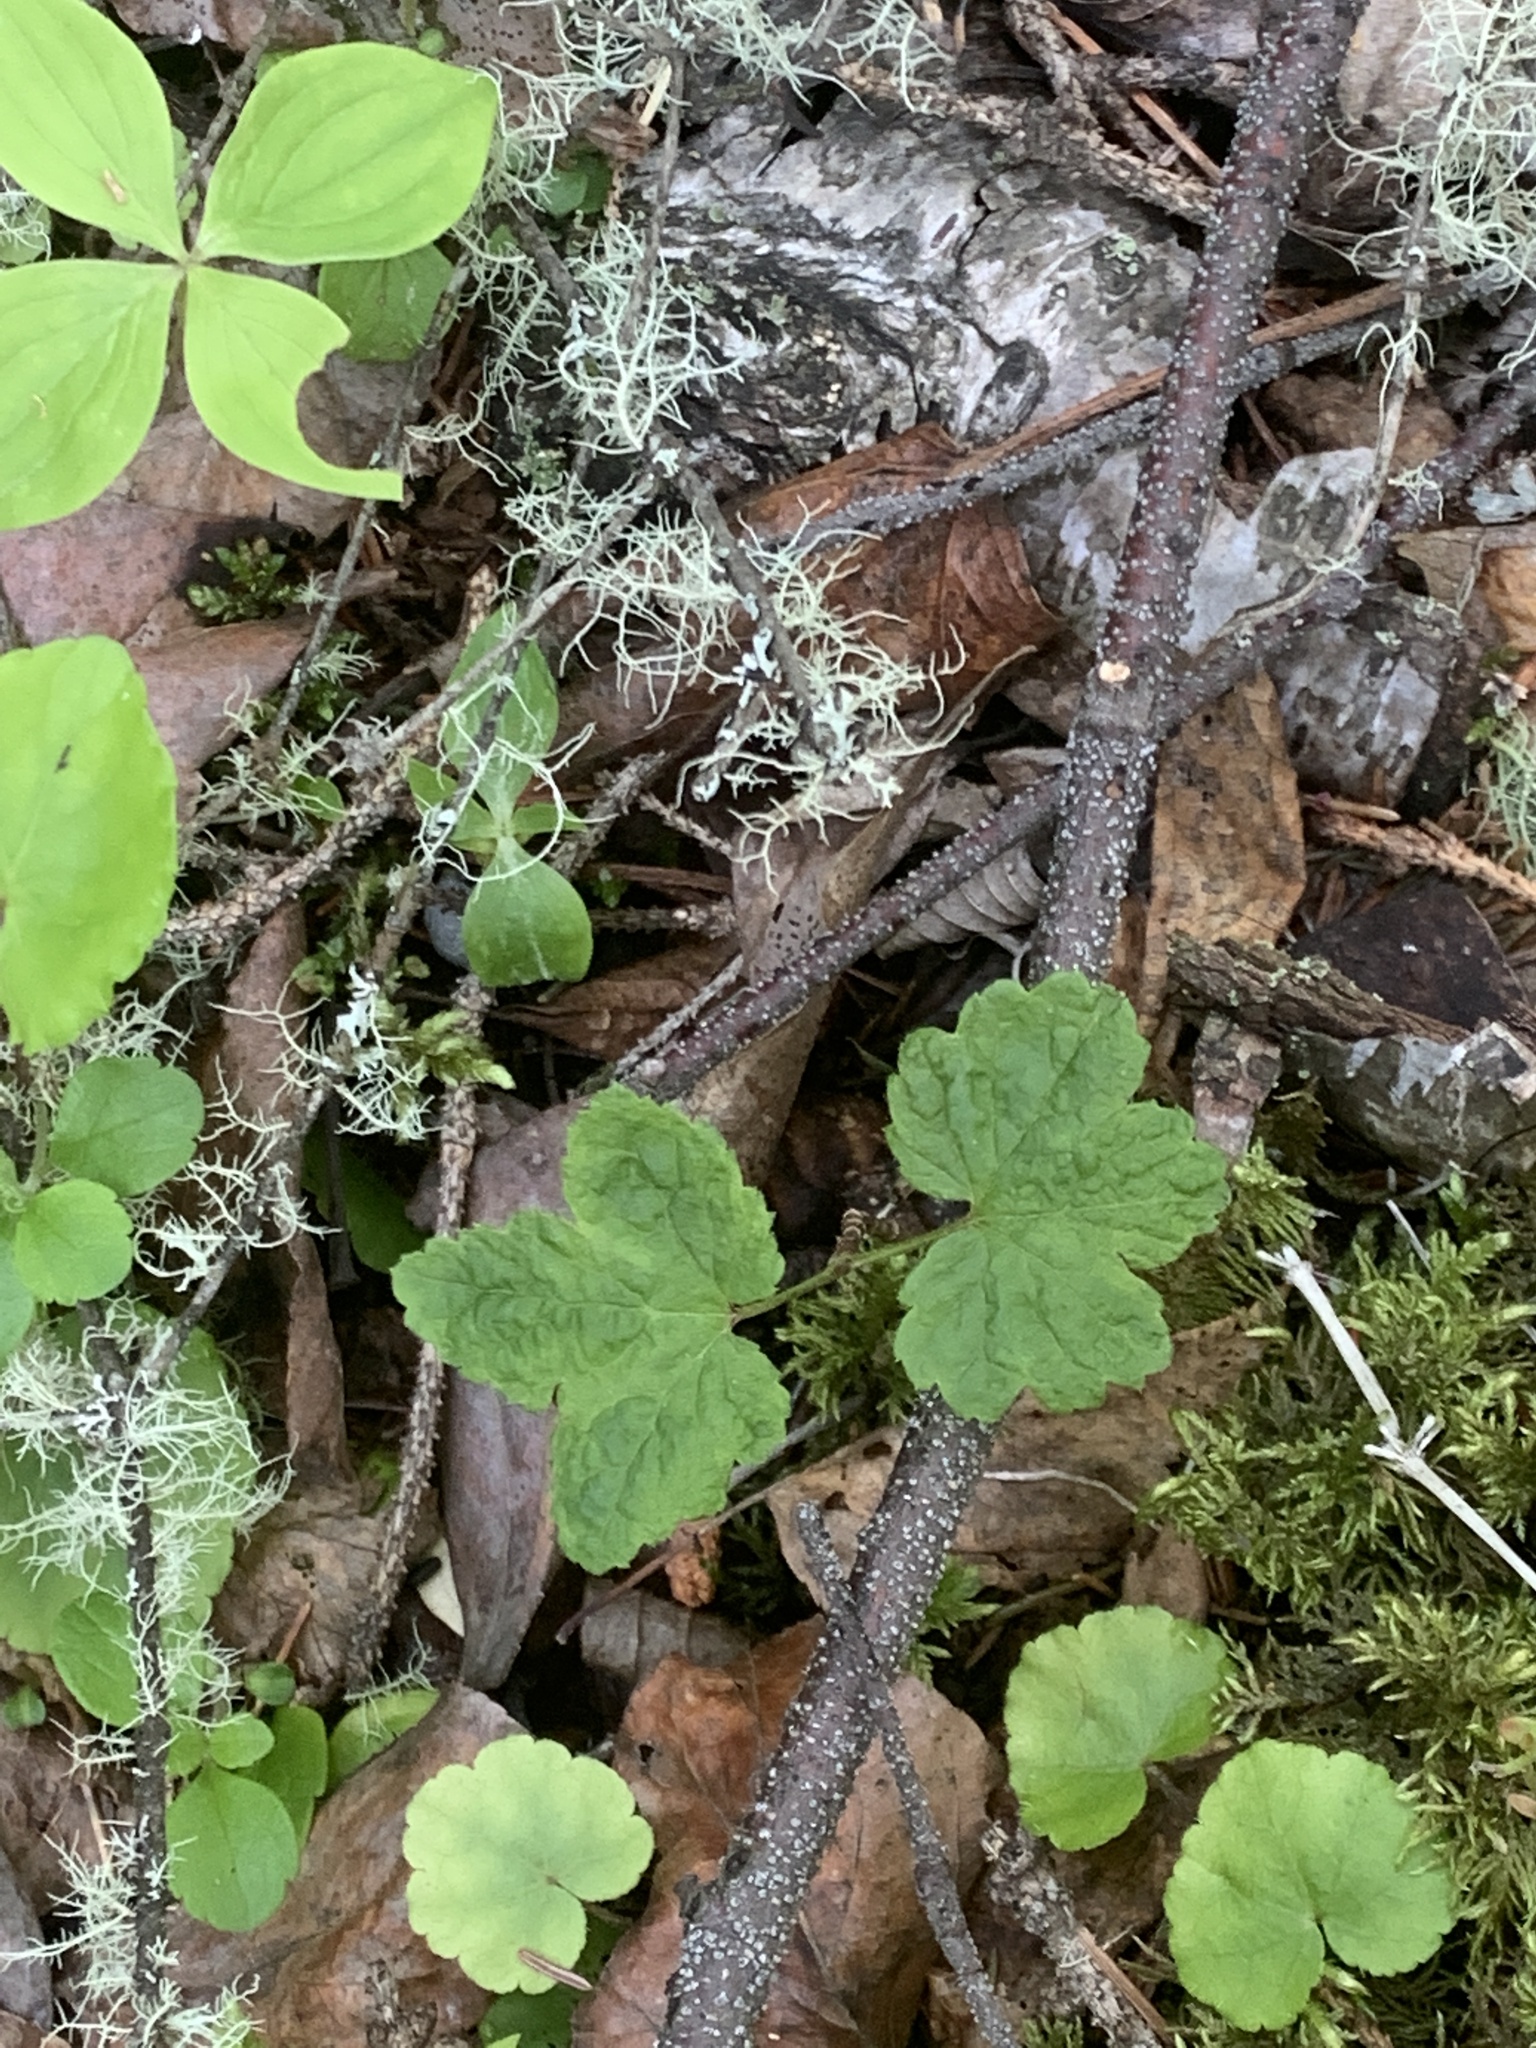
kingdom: Plantae
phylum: Tracheophyta
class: Magnoliopsida
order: Saxifragales
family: Grossulariaceae
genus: Ribes
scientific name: Ribes triste
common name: Swamp red currant
